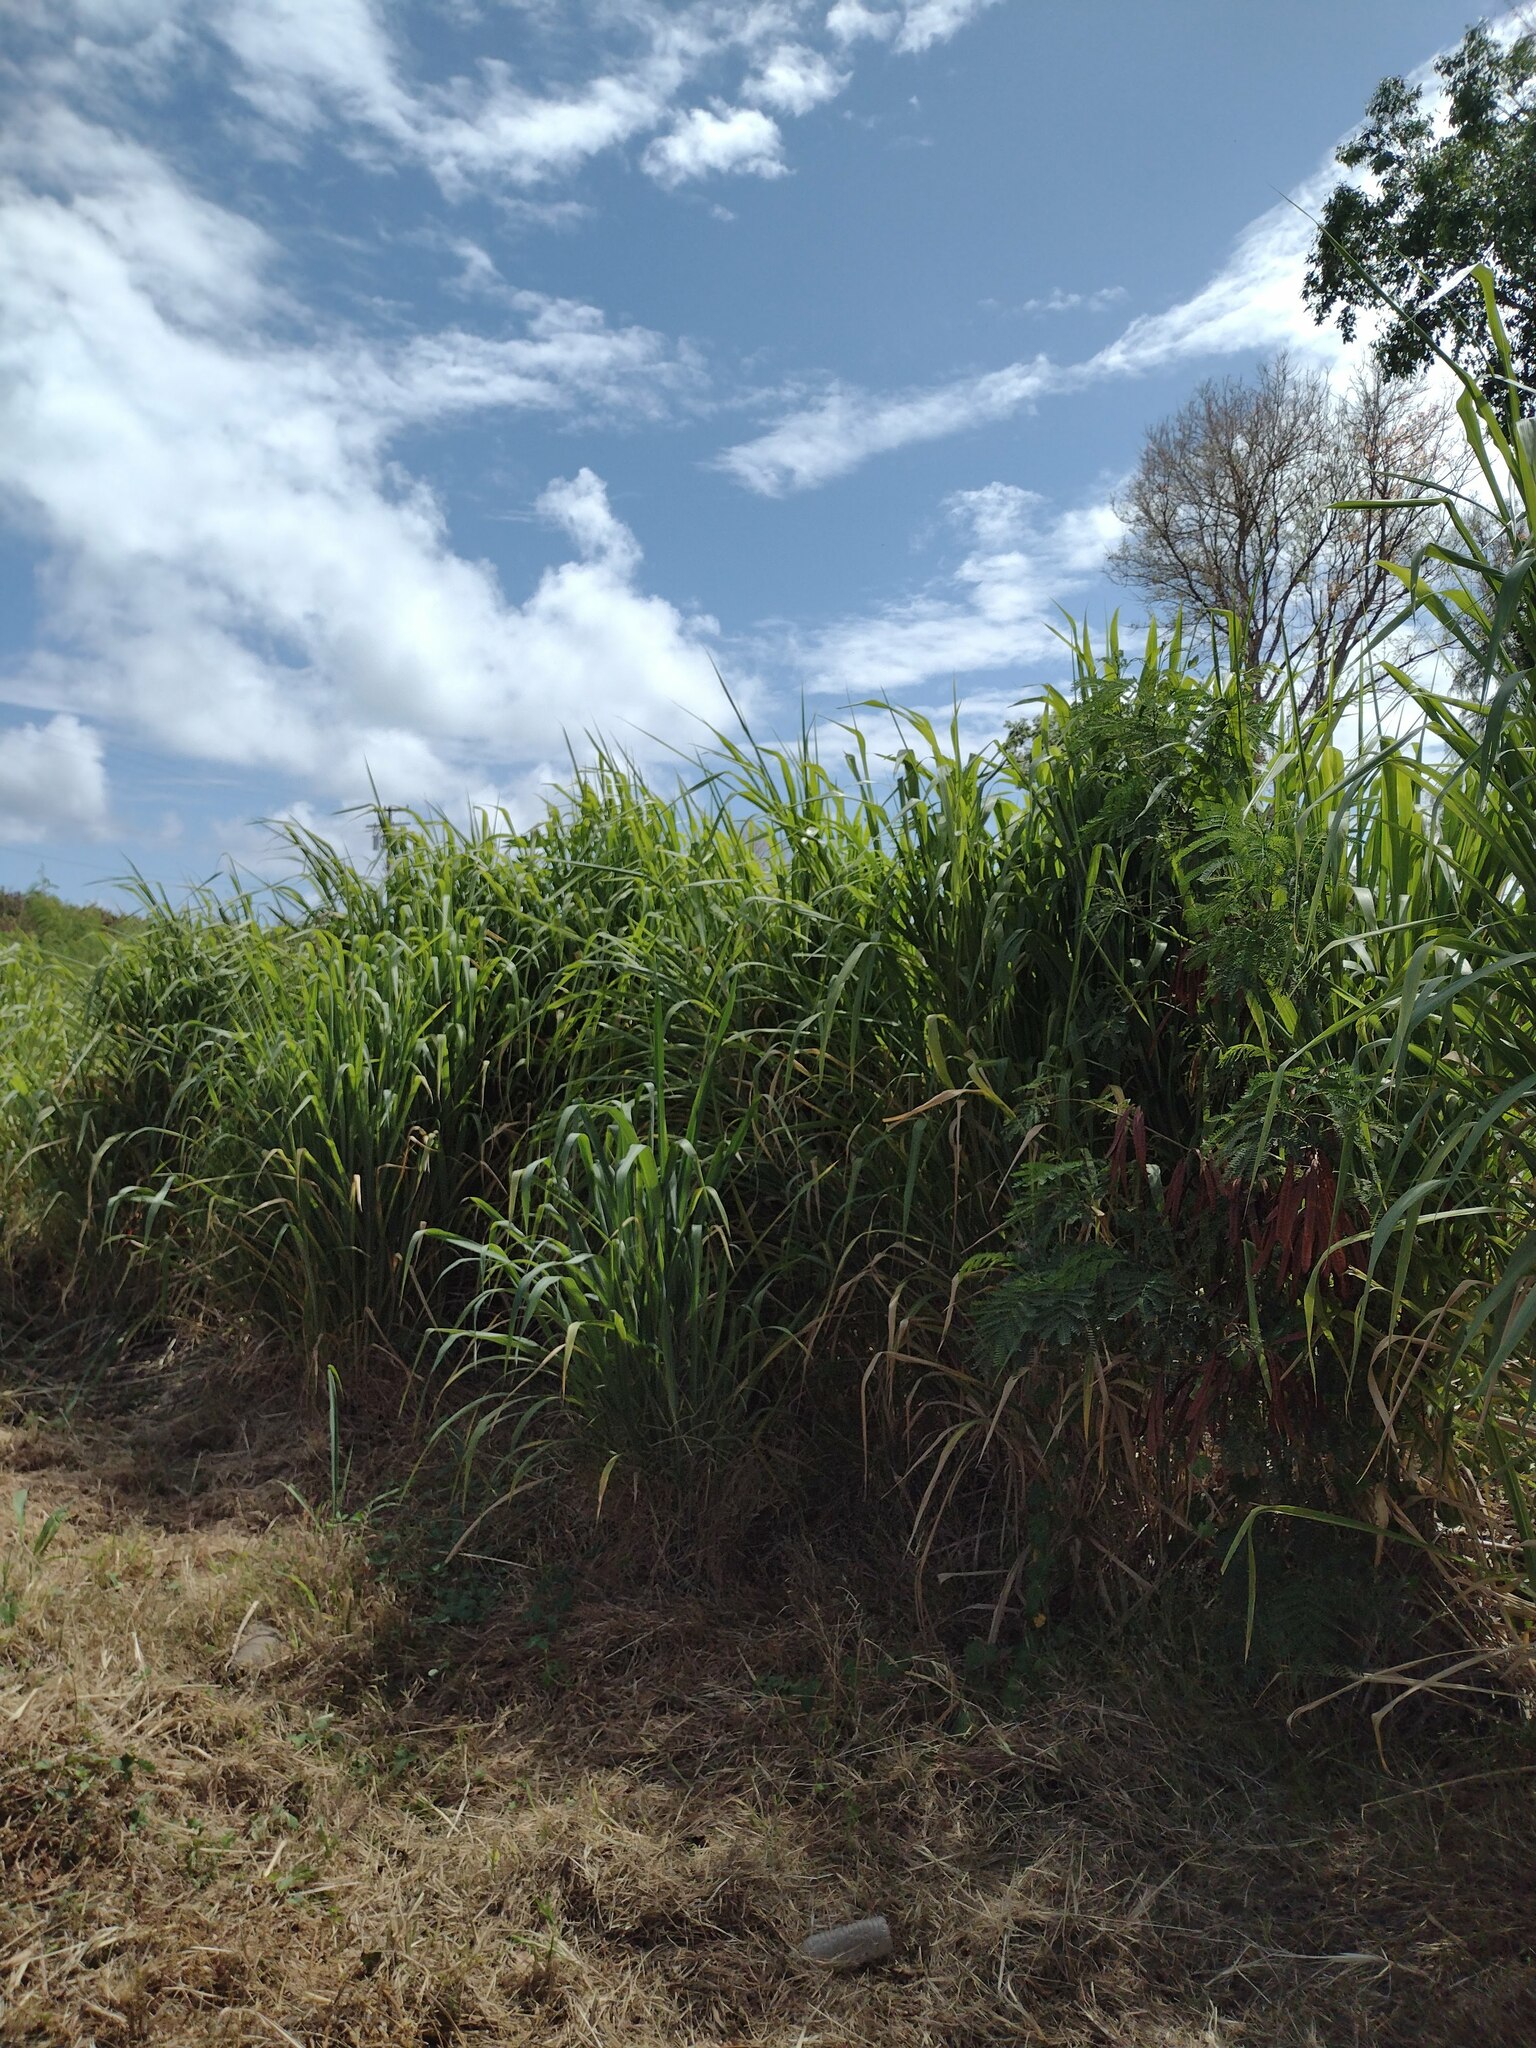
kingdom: Plantae
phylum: Tracheophyta
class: Liliopsida
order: Poales
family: Poaceae
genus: Megathyrsus
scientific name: Megathyrsus maximus
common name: Guineagrass
